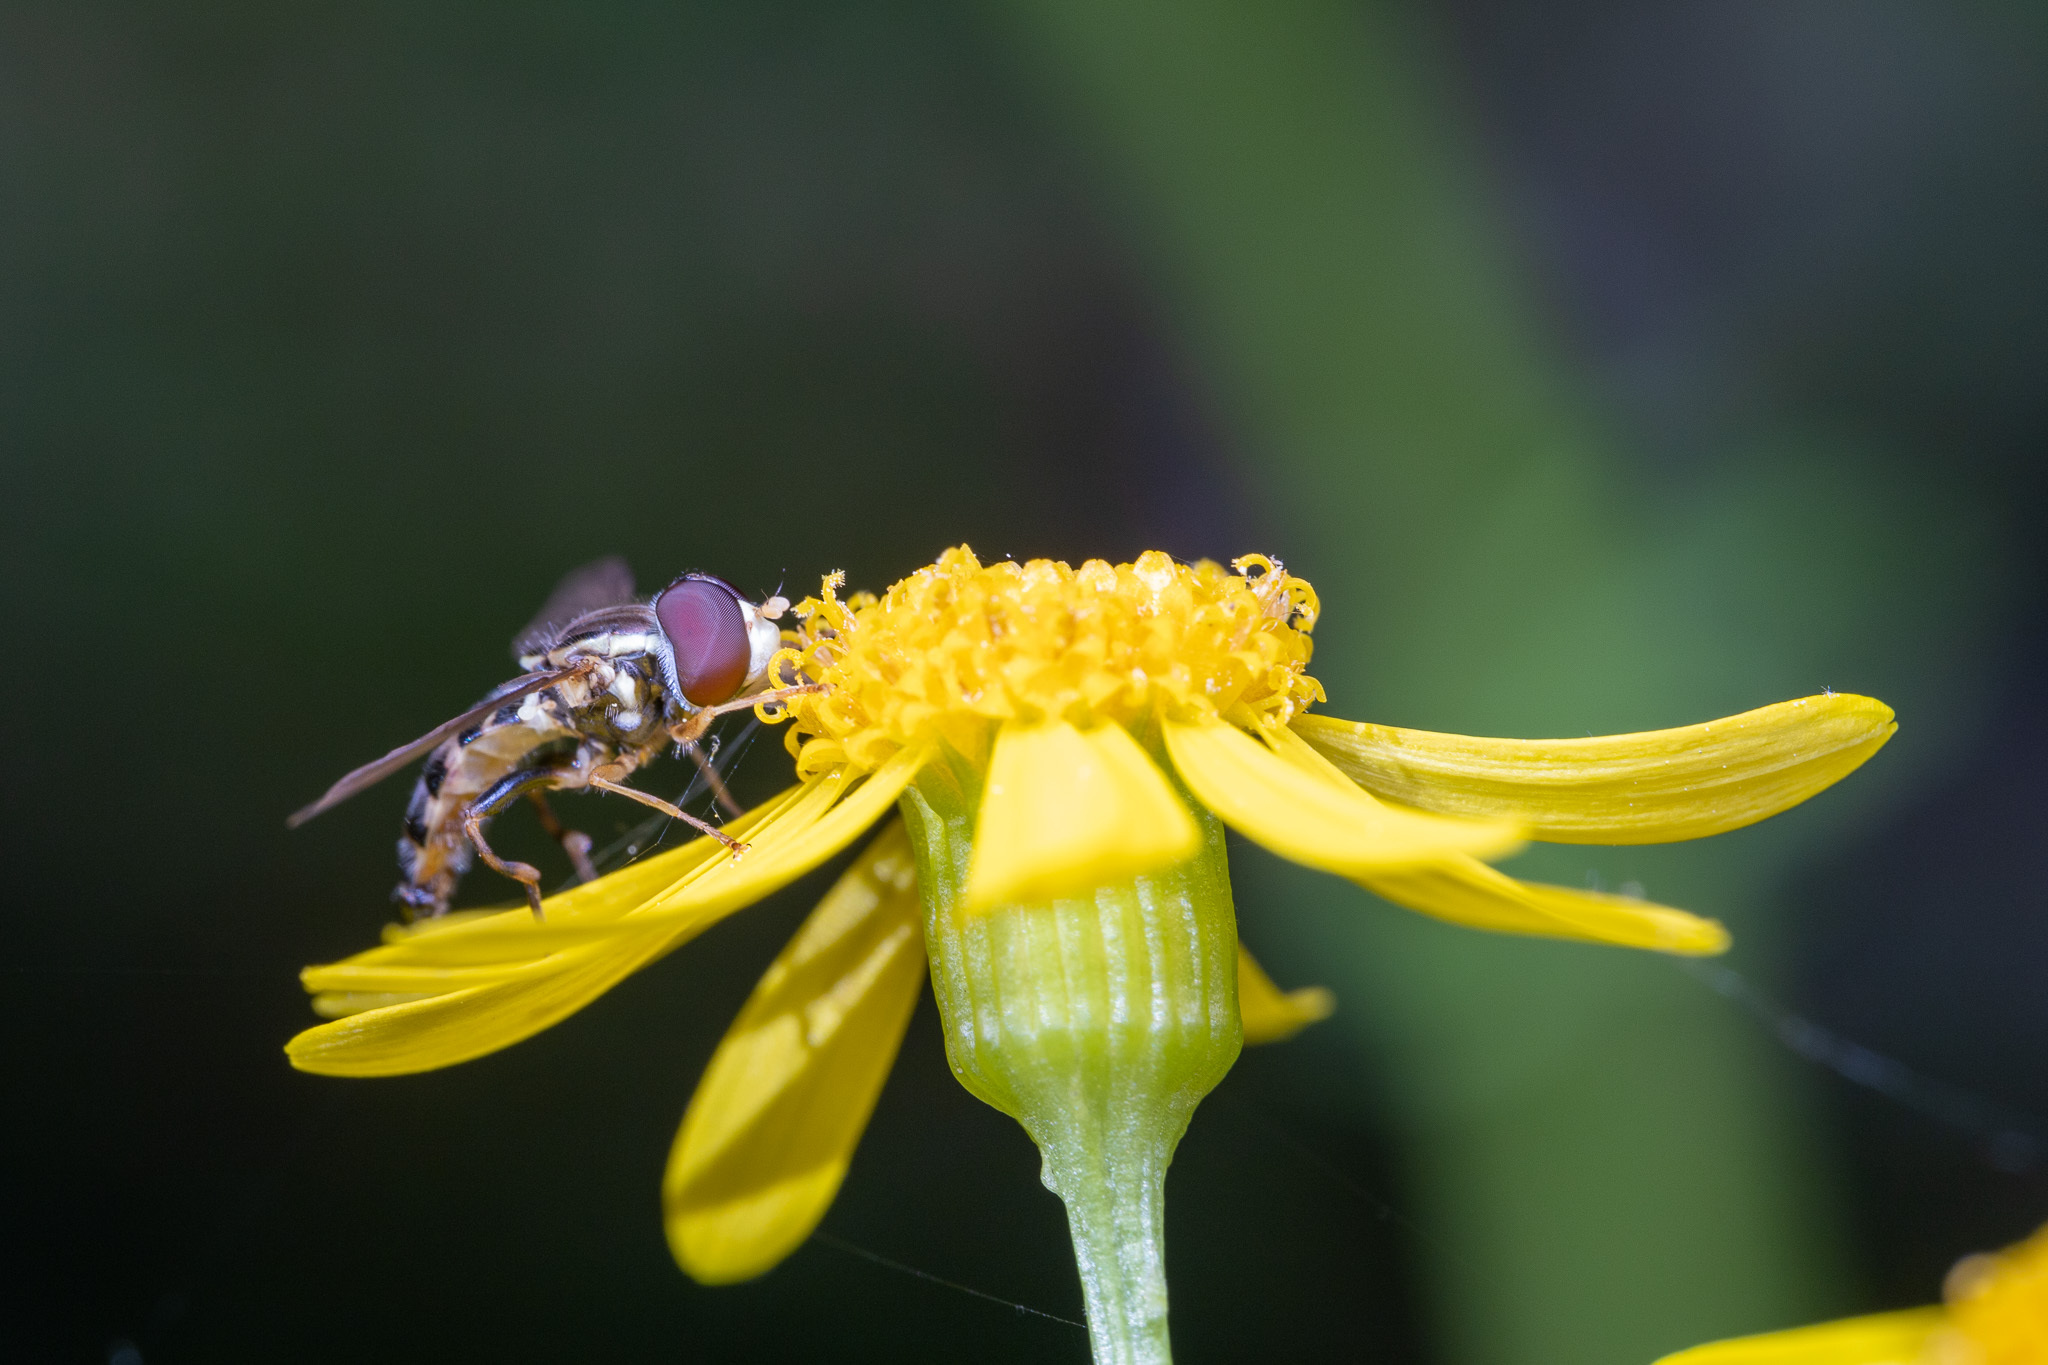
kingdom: Animalia
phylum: Arthropoda
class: Insecta
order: Diptera
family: Syrphidae
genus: Toxomerus
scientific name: Toxomerus geminatus
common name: Eastern calligrapher
